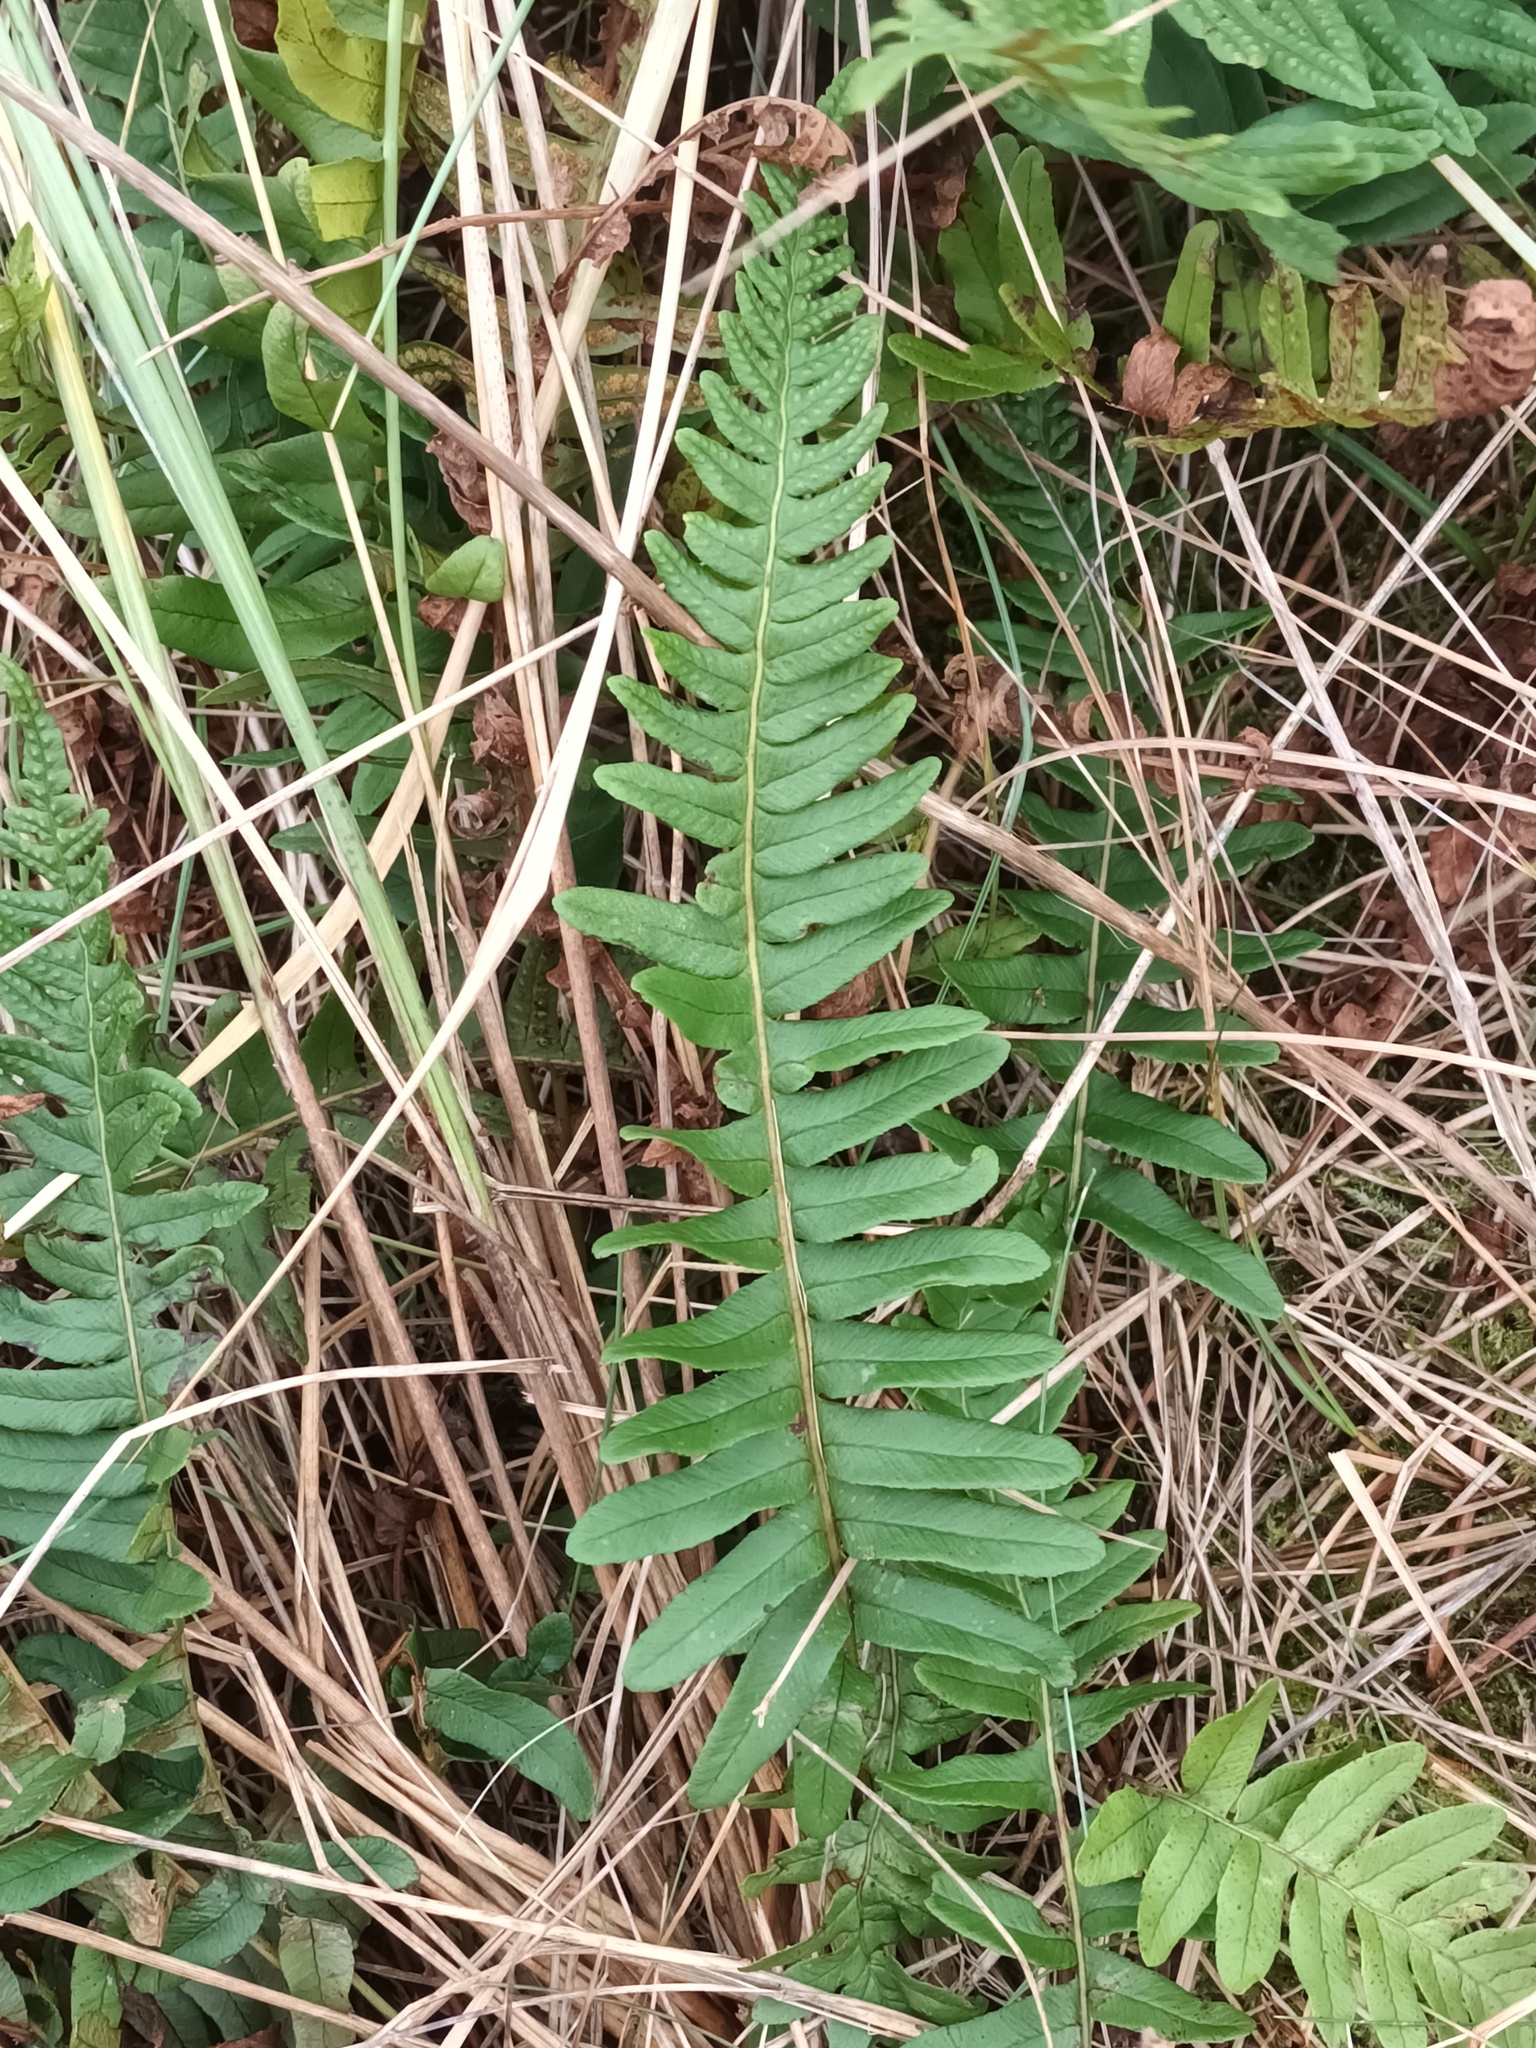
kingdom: Plantae
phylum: Tracheophyta
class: Polypodiopsida
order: Polypodiales
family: Polypodiaceae
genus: Polypodium
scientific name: Polypodium
